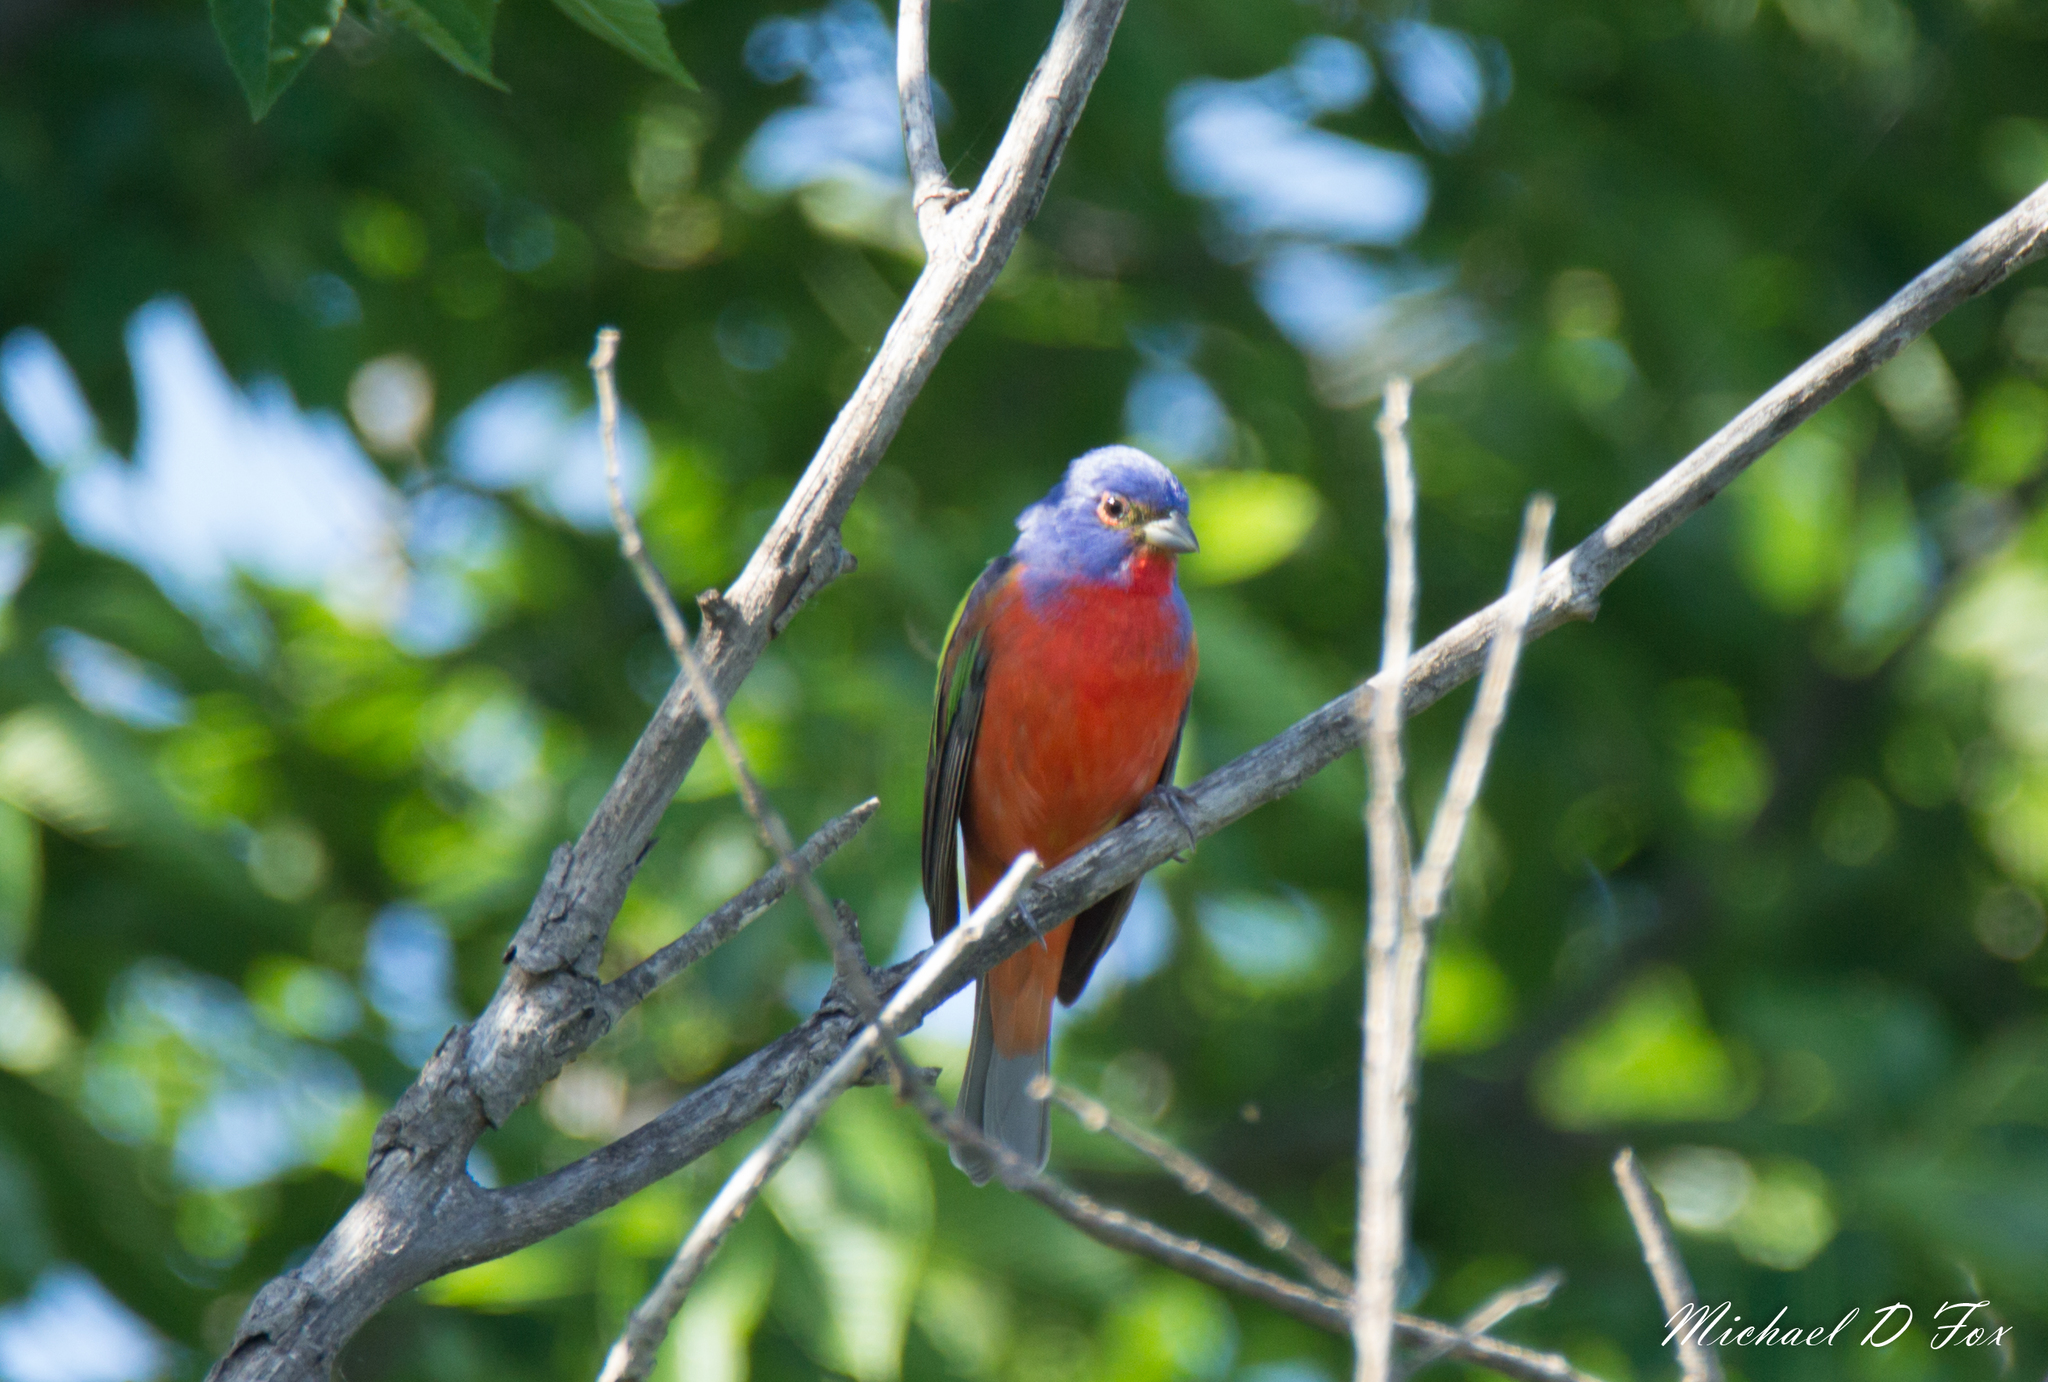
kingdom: Animalia
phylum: Chordata
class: Aves
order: Passeriformes
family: Cardinalidae
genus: Passerina
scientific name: Passerina ciris
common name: Painted bunting
